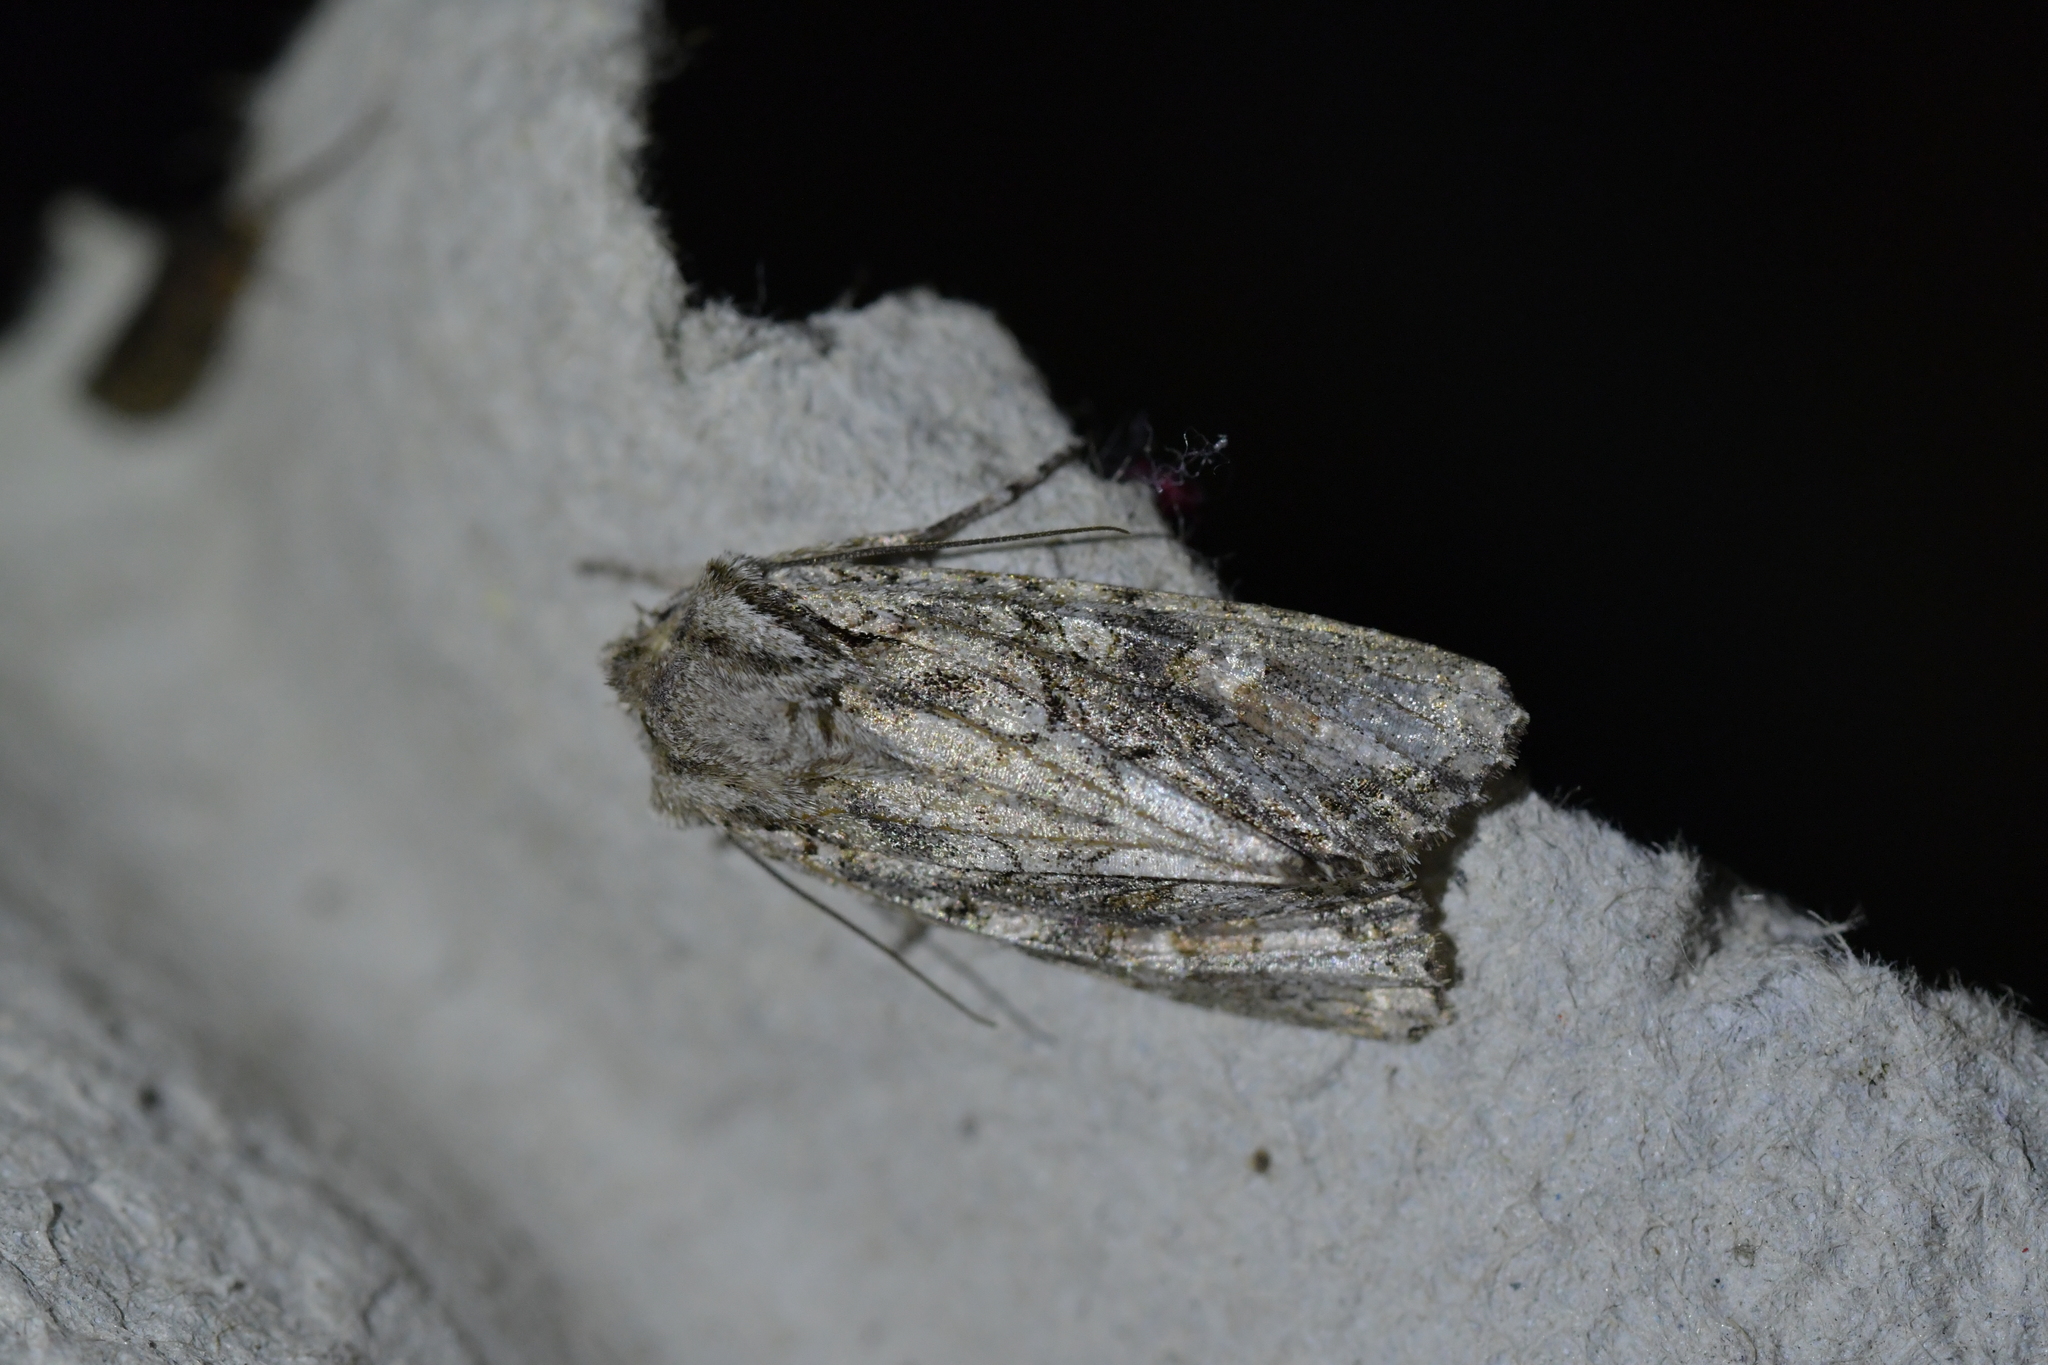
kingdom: Animalia
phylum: Arthropoda
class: Insecta
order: Lepidoptera
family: Noctuidae
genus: Ichneutica
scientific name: Ichneutica mutans
